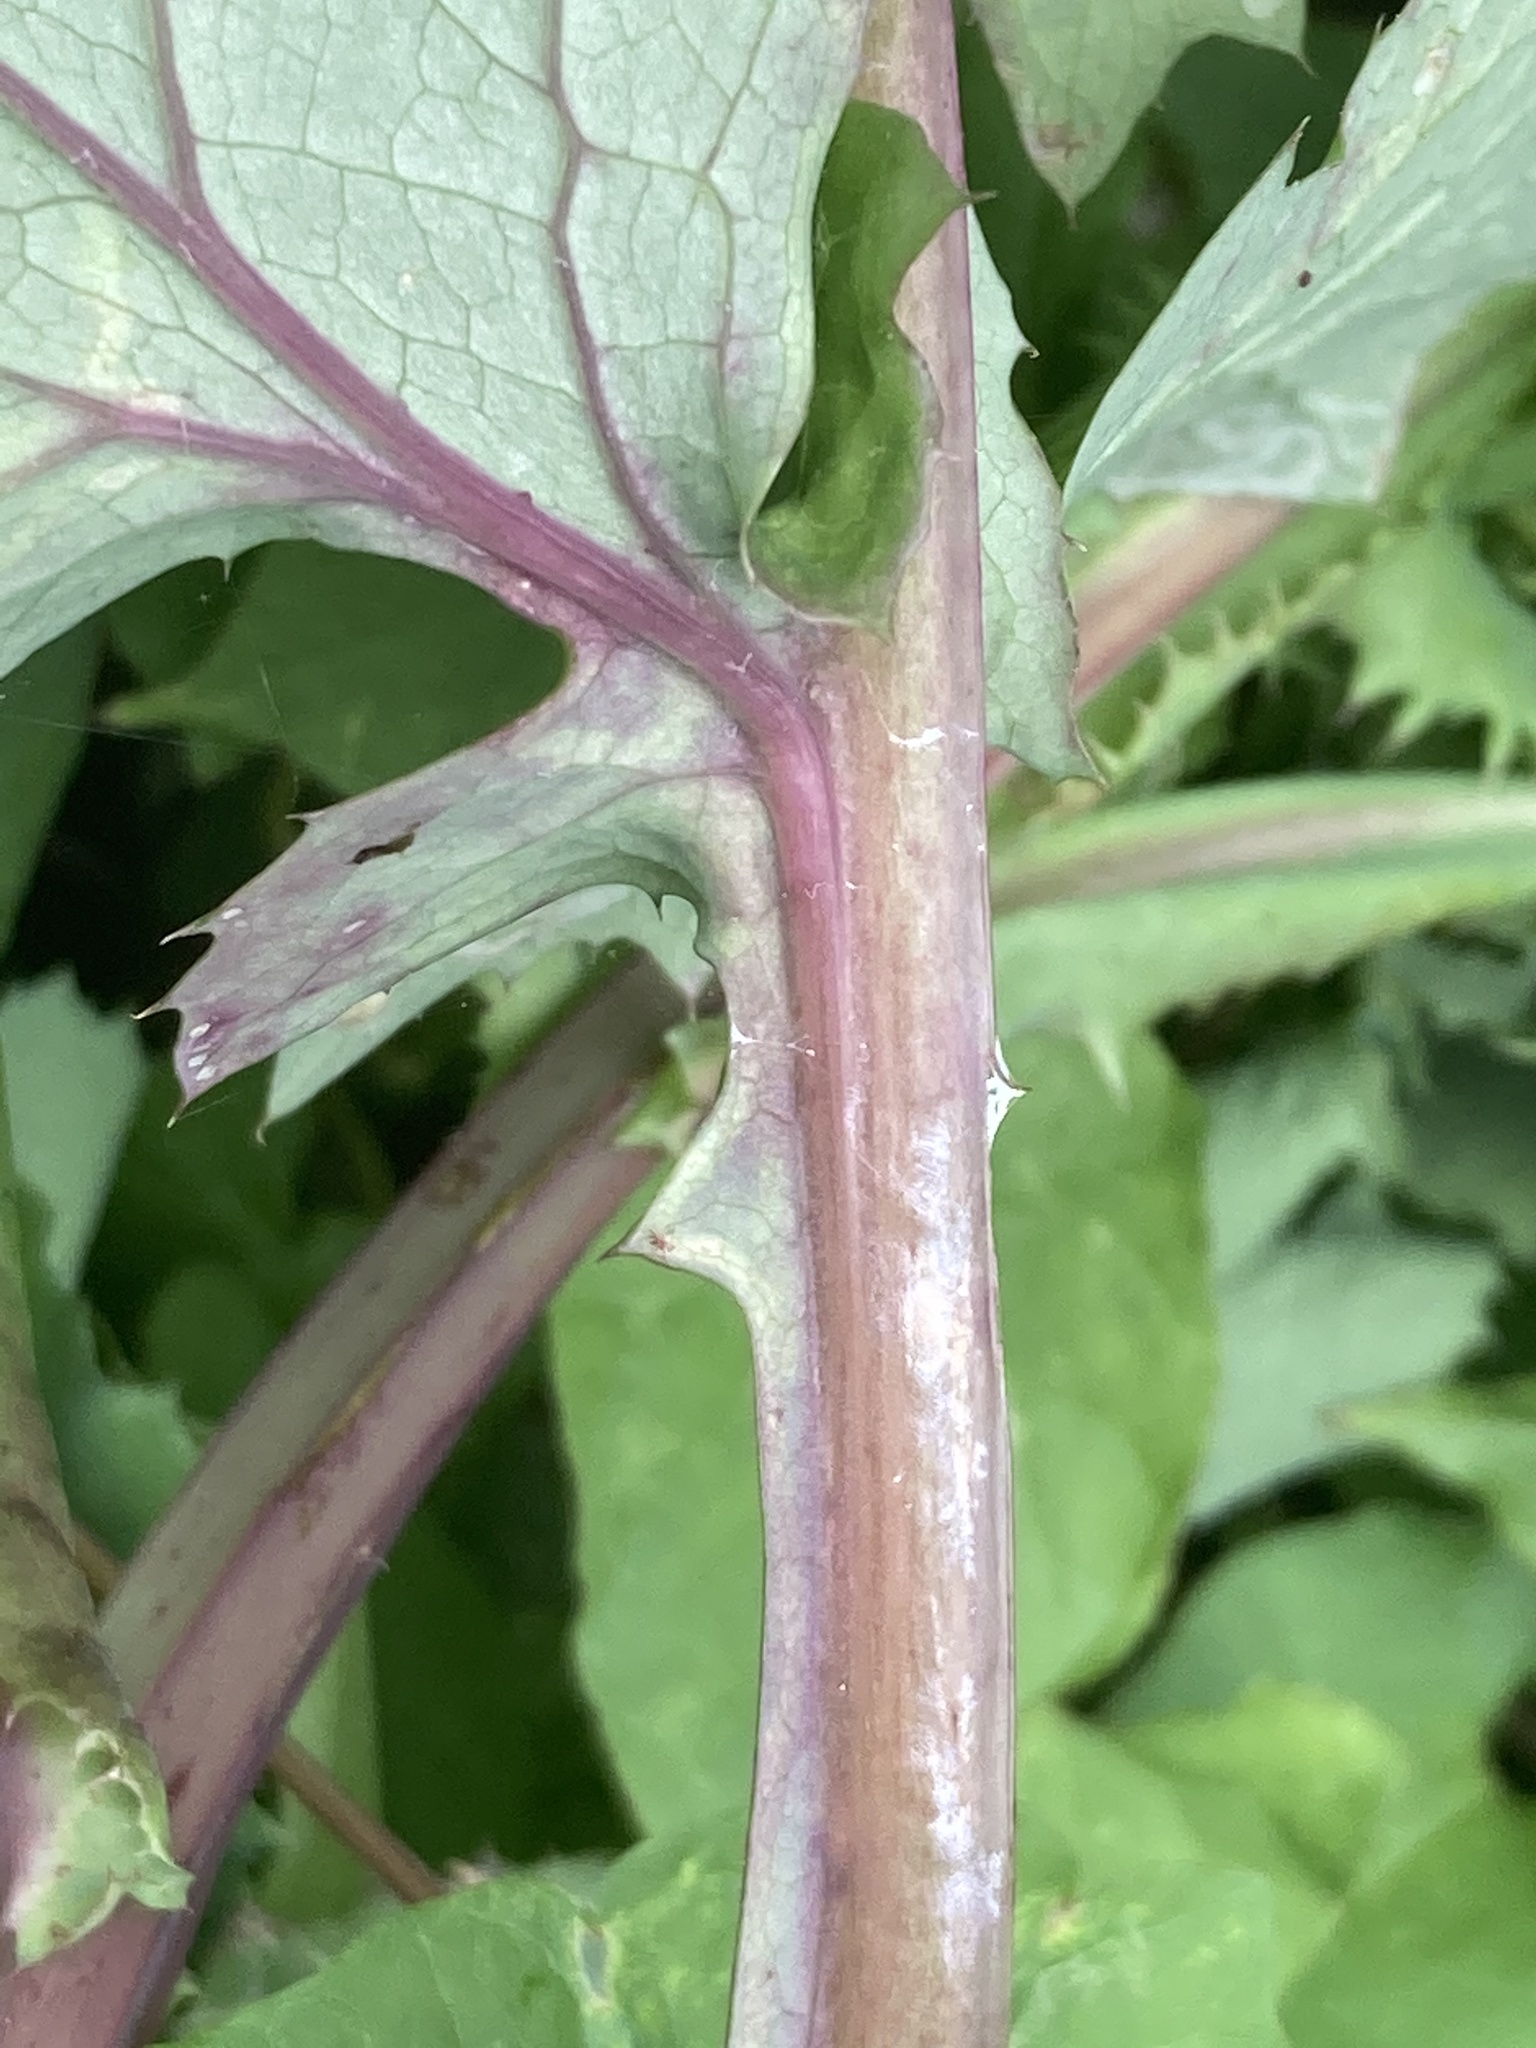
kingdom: Plantae
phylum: Tracheophyta
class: Magnoliopsida
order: Asterales
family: Asteraceae
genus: Sonchus
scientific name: Sonchus oleraceus
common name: Common sowthistle
